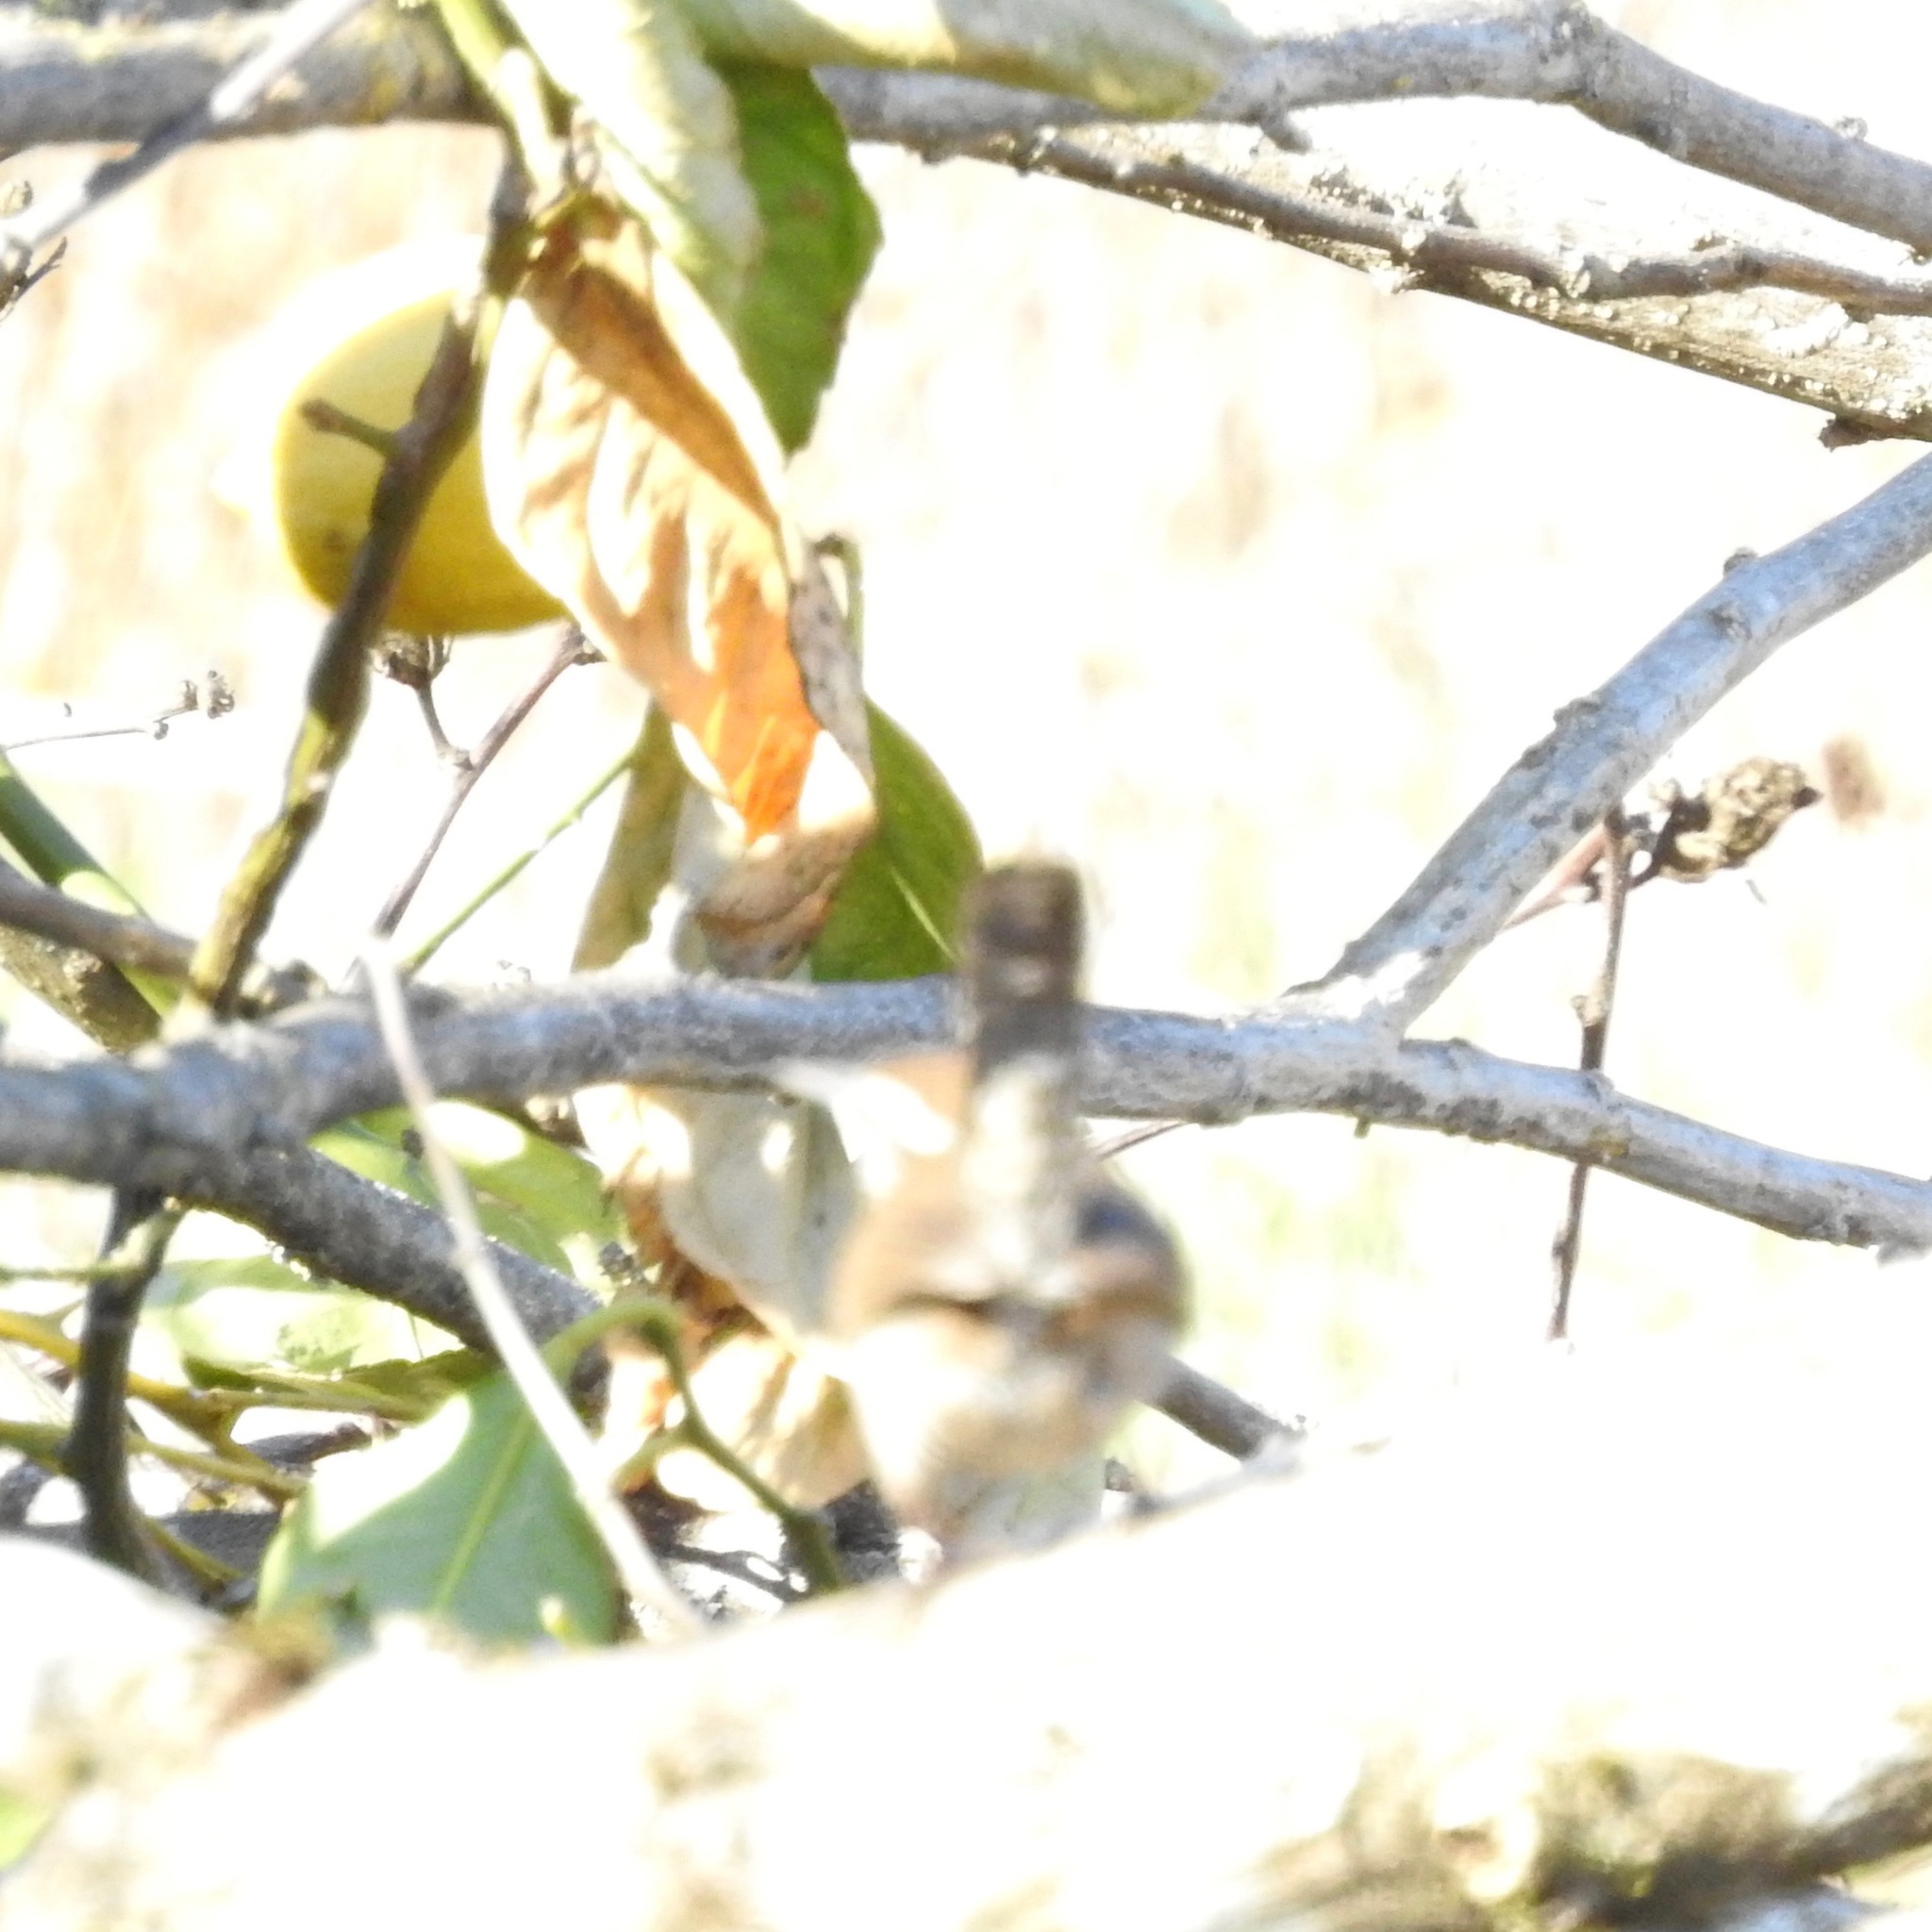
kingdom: Animalia
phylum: Chordata
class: Aves
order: Passeriformes
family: Troglodytidae
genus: Thryomanes
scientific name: Thryomanes bewickii
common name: Bewick's wren
